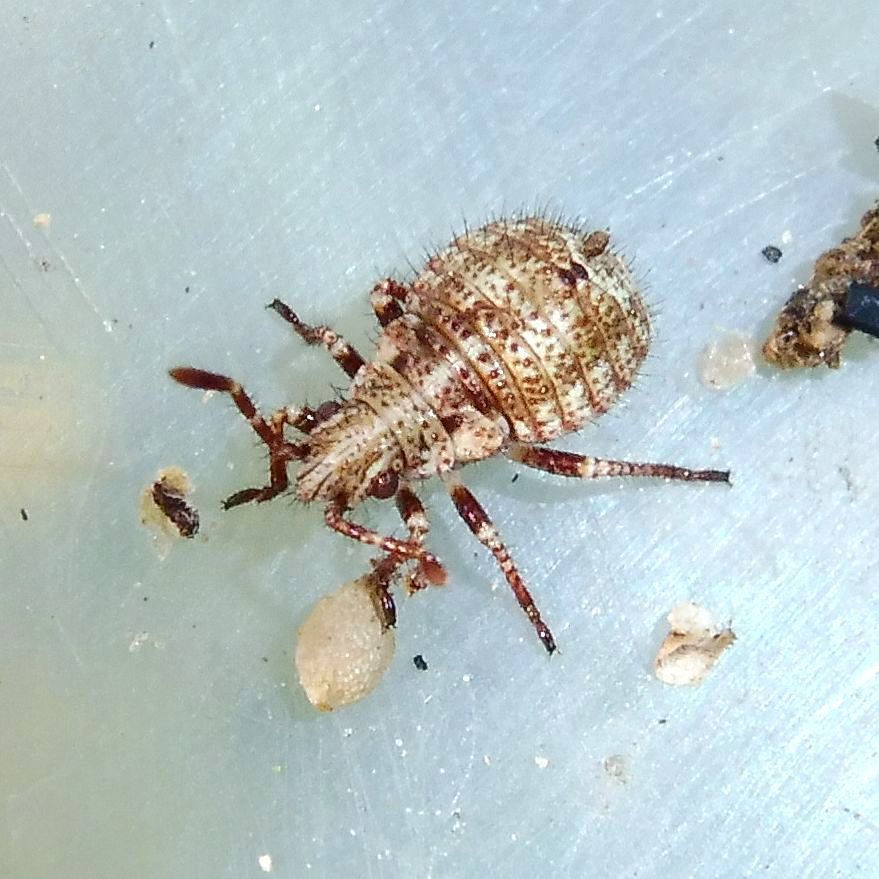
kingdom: Animalia
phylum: Arthropoda
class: Insecta
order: Hemiptera
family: Rhopalidae
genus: Stictopleurus
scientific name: Stictopleurus punctatonervosus
